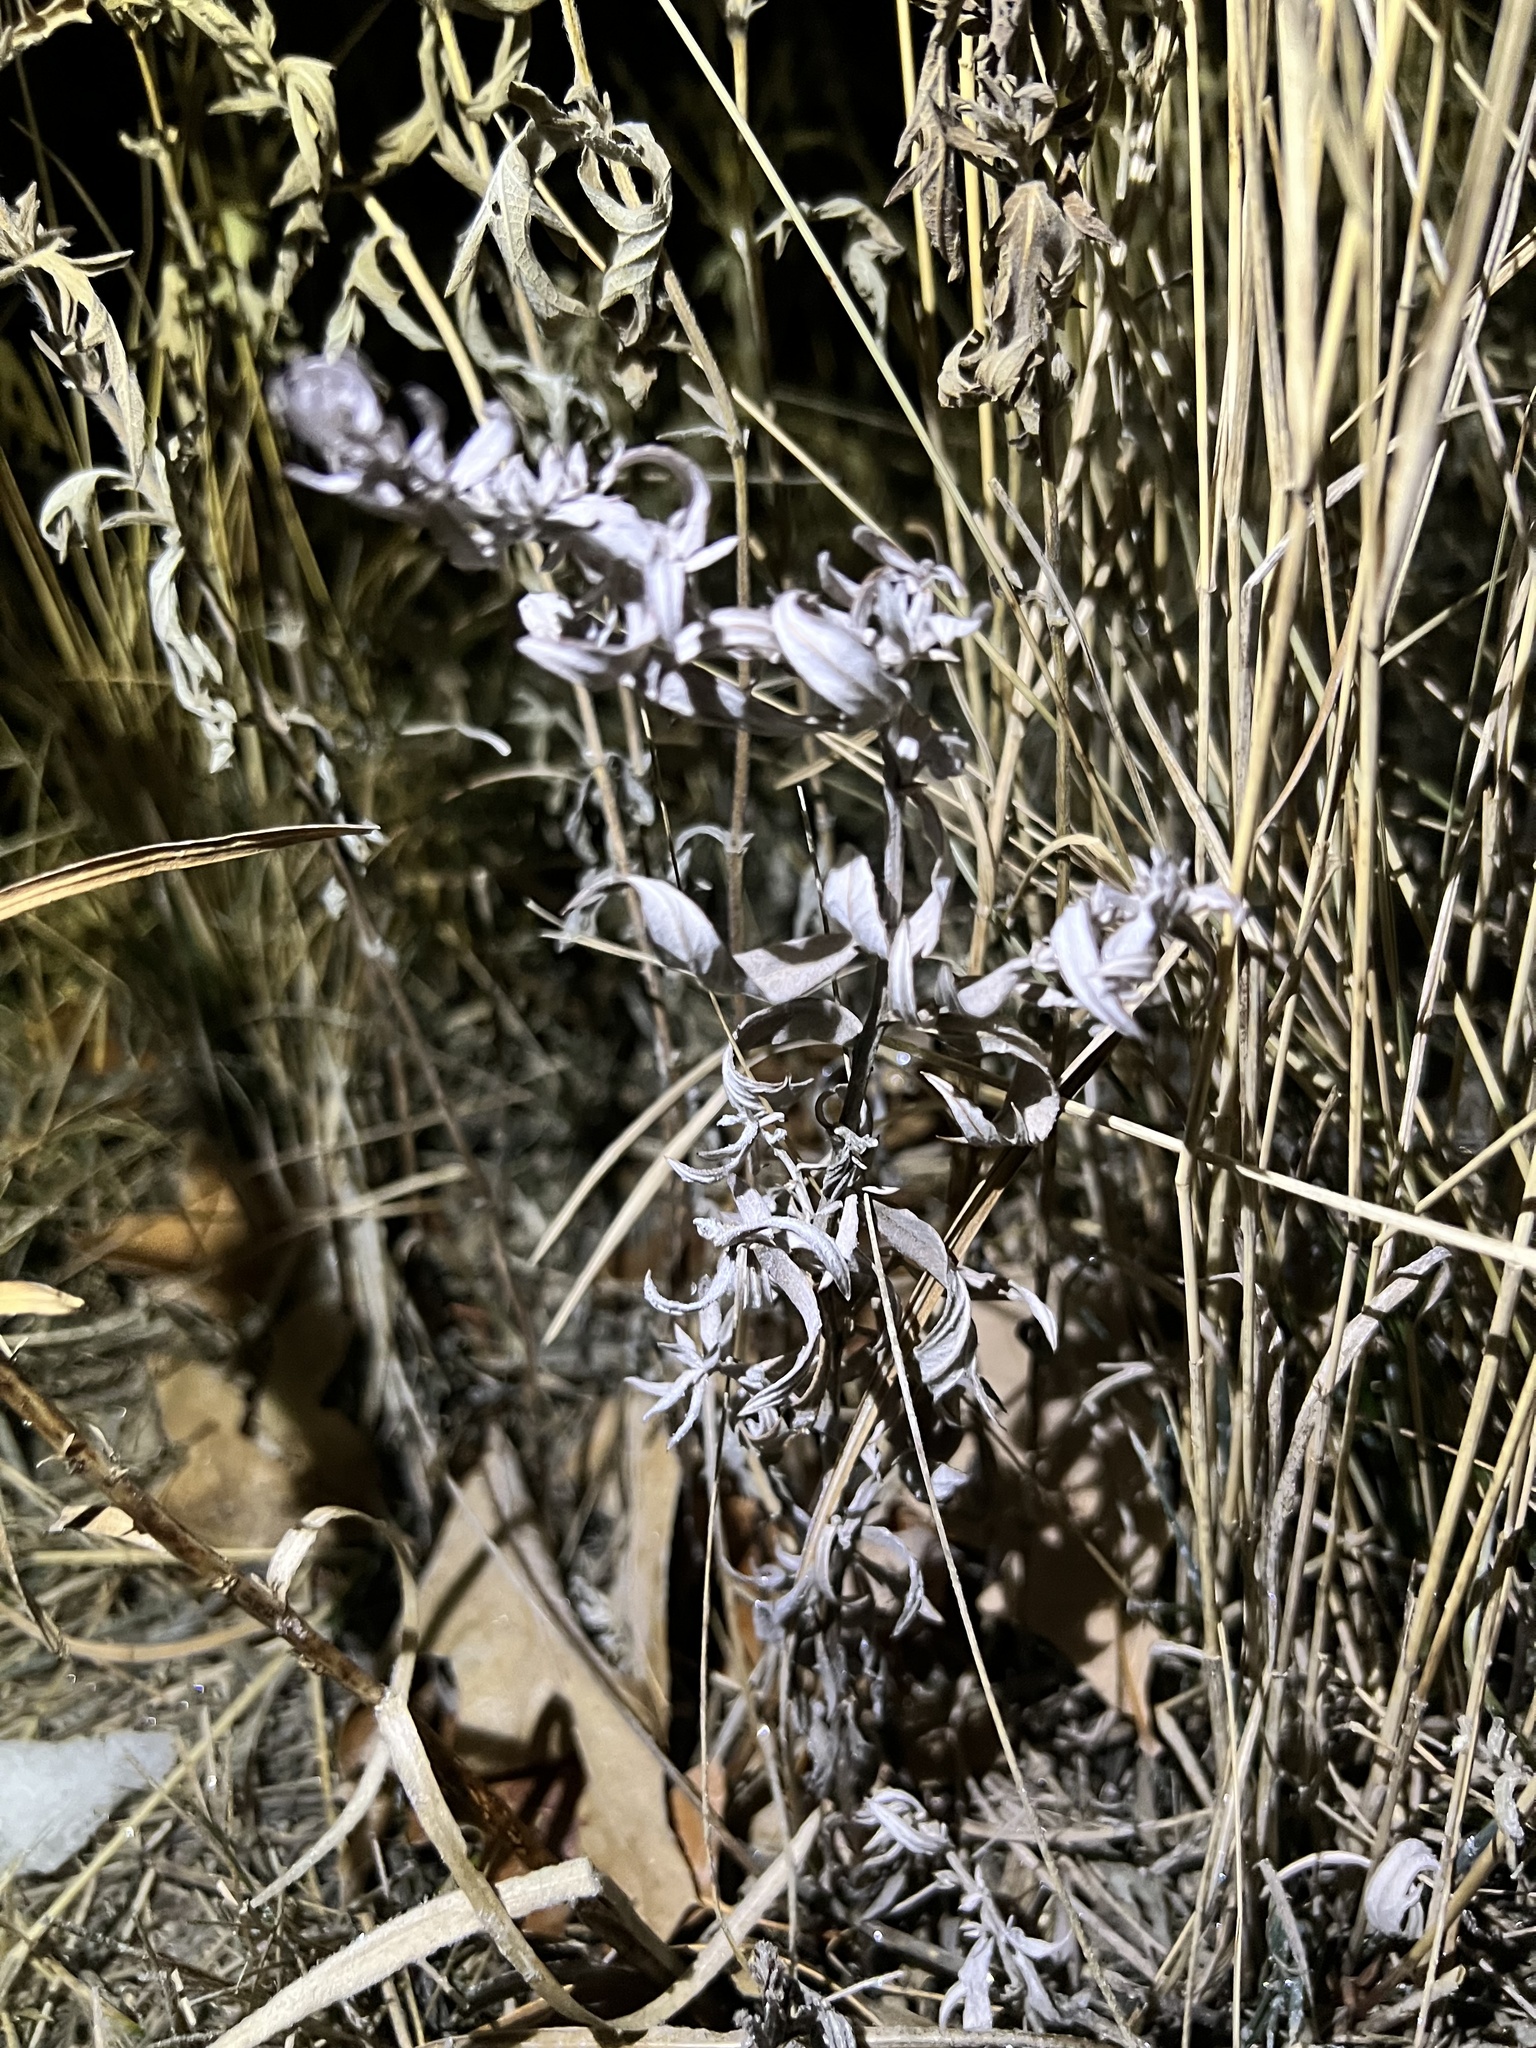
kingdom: Plantae
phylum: Tracheophyta
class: Magnoliopsida
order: Asterales
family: Asteraceae
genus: Artemisia
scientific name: Artemisia ludoviciana
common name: Western mugwort
